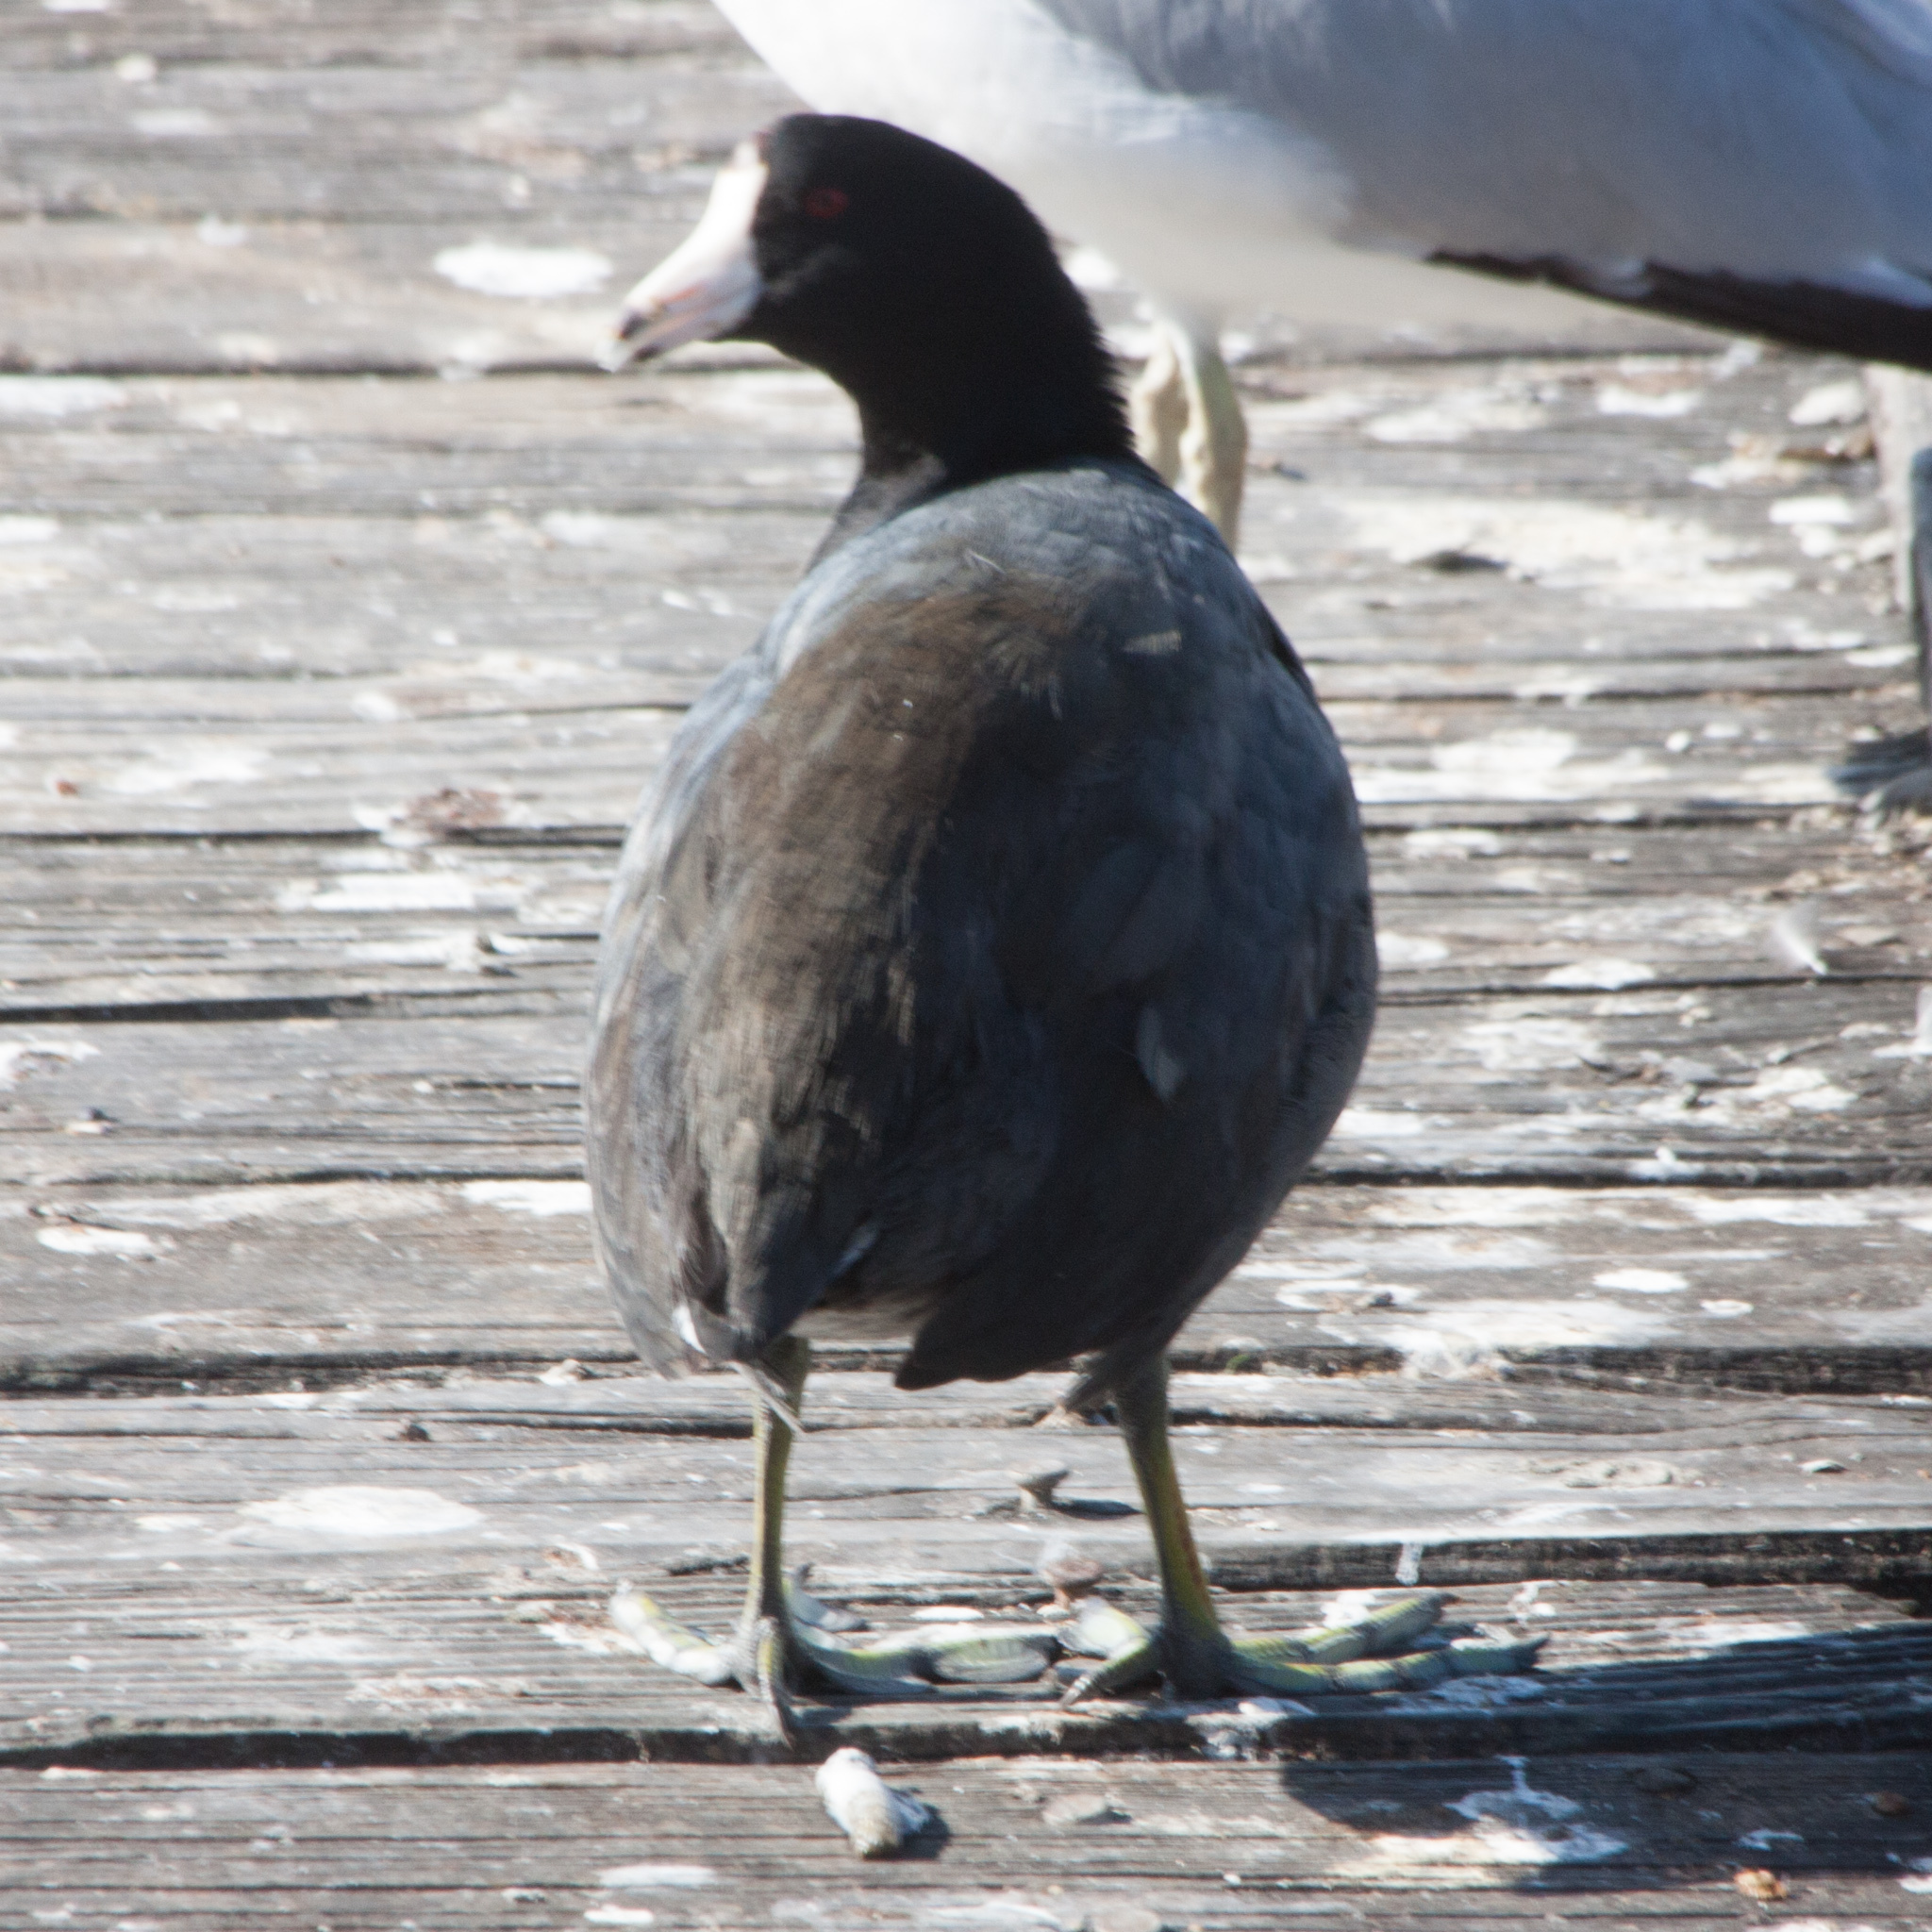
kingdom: Animalia
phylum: Chordata
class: Aves
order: Gruiformes
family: Rallidae
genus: Fulica
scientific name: Fulica americana
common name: American coot
